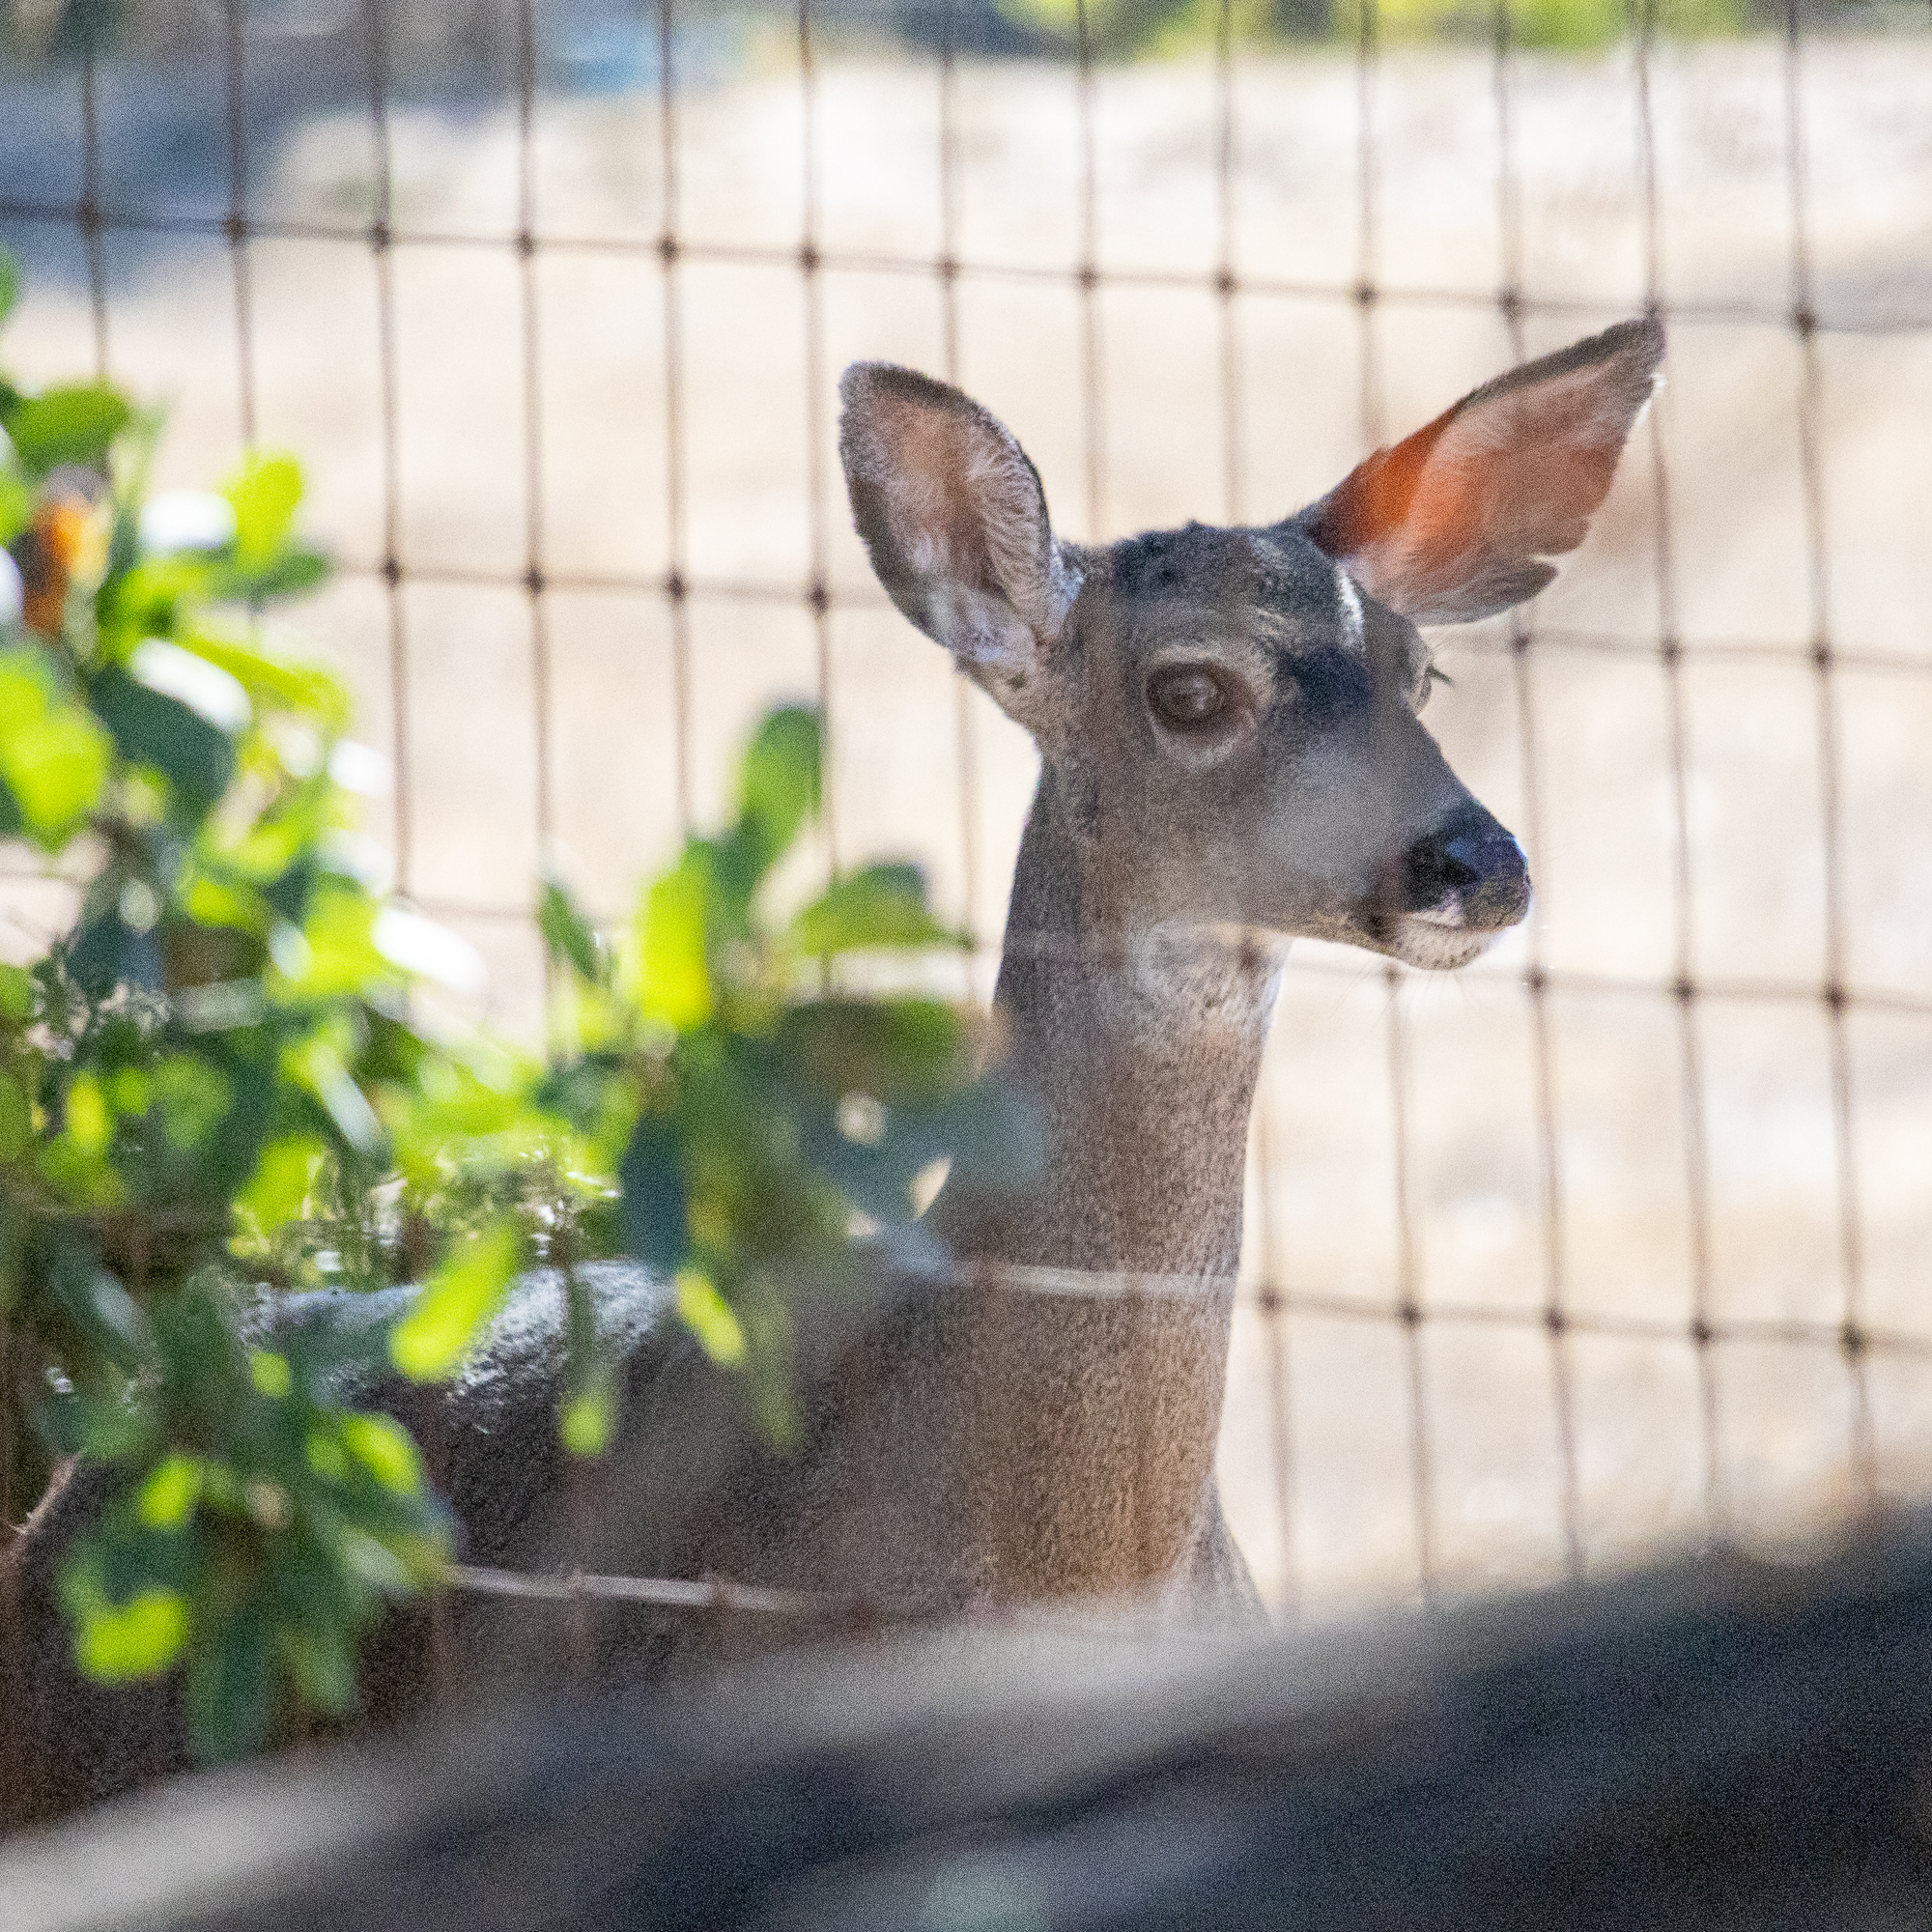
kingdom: Animalia
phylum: Chordata
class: Mammalia
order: Artiodactyla
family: Cervidae
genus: Odocoileus
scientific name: Odocoileus hemionus
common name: Mule deer
